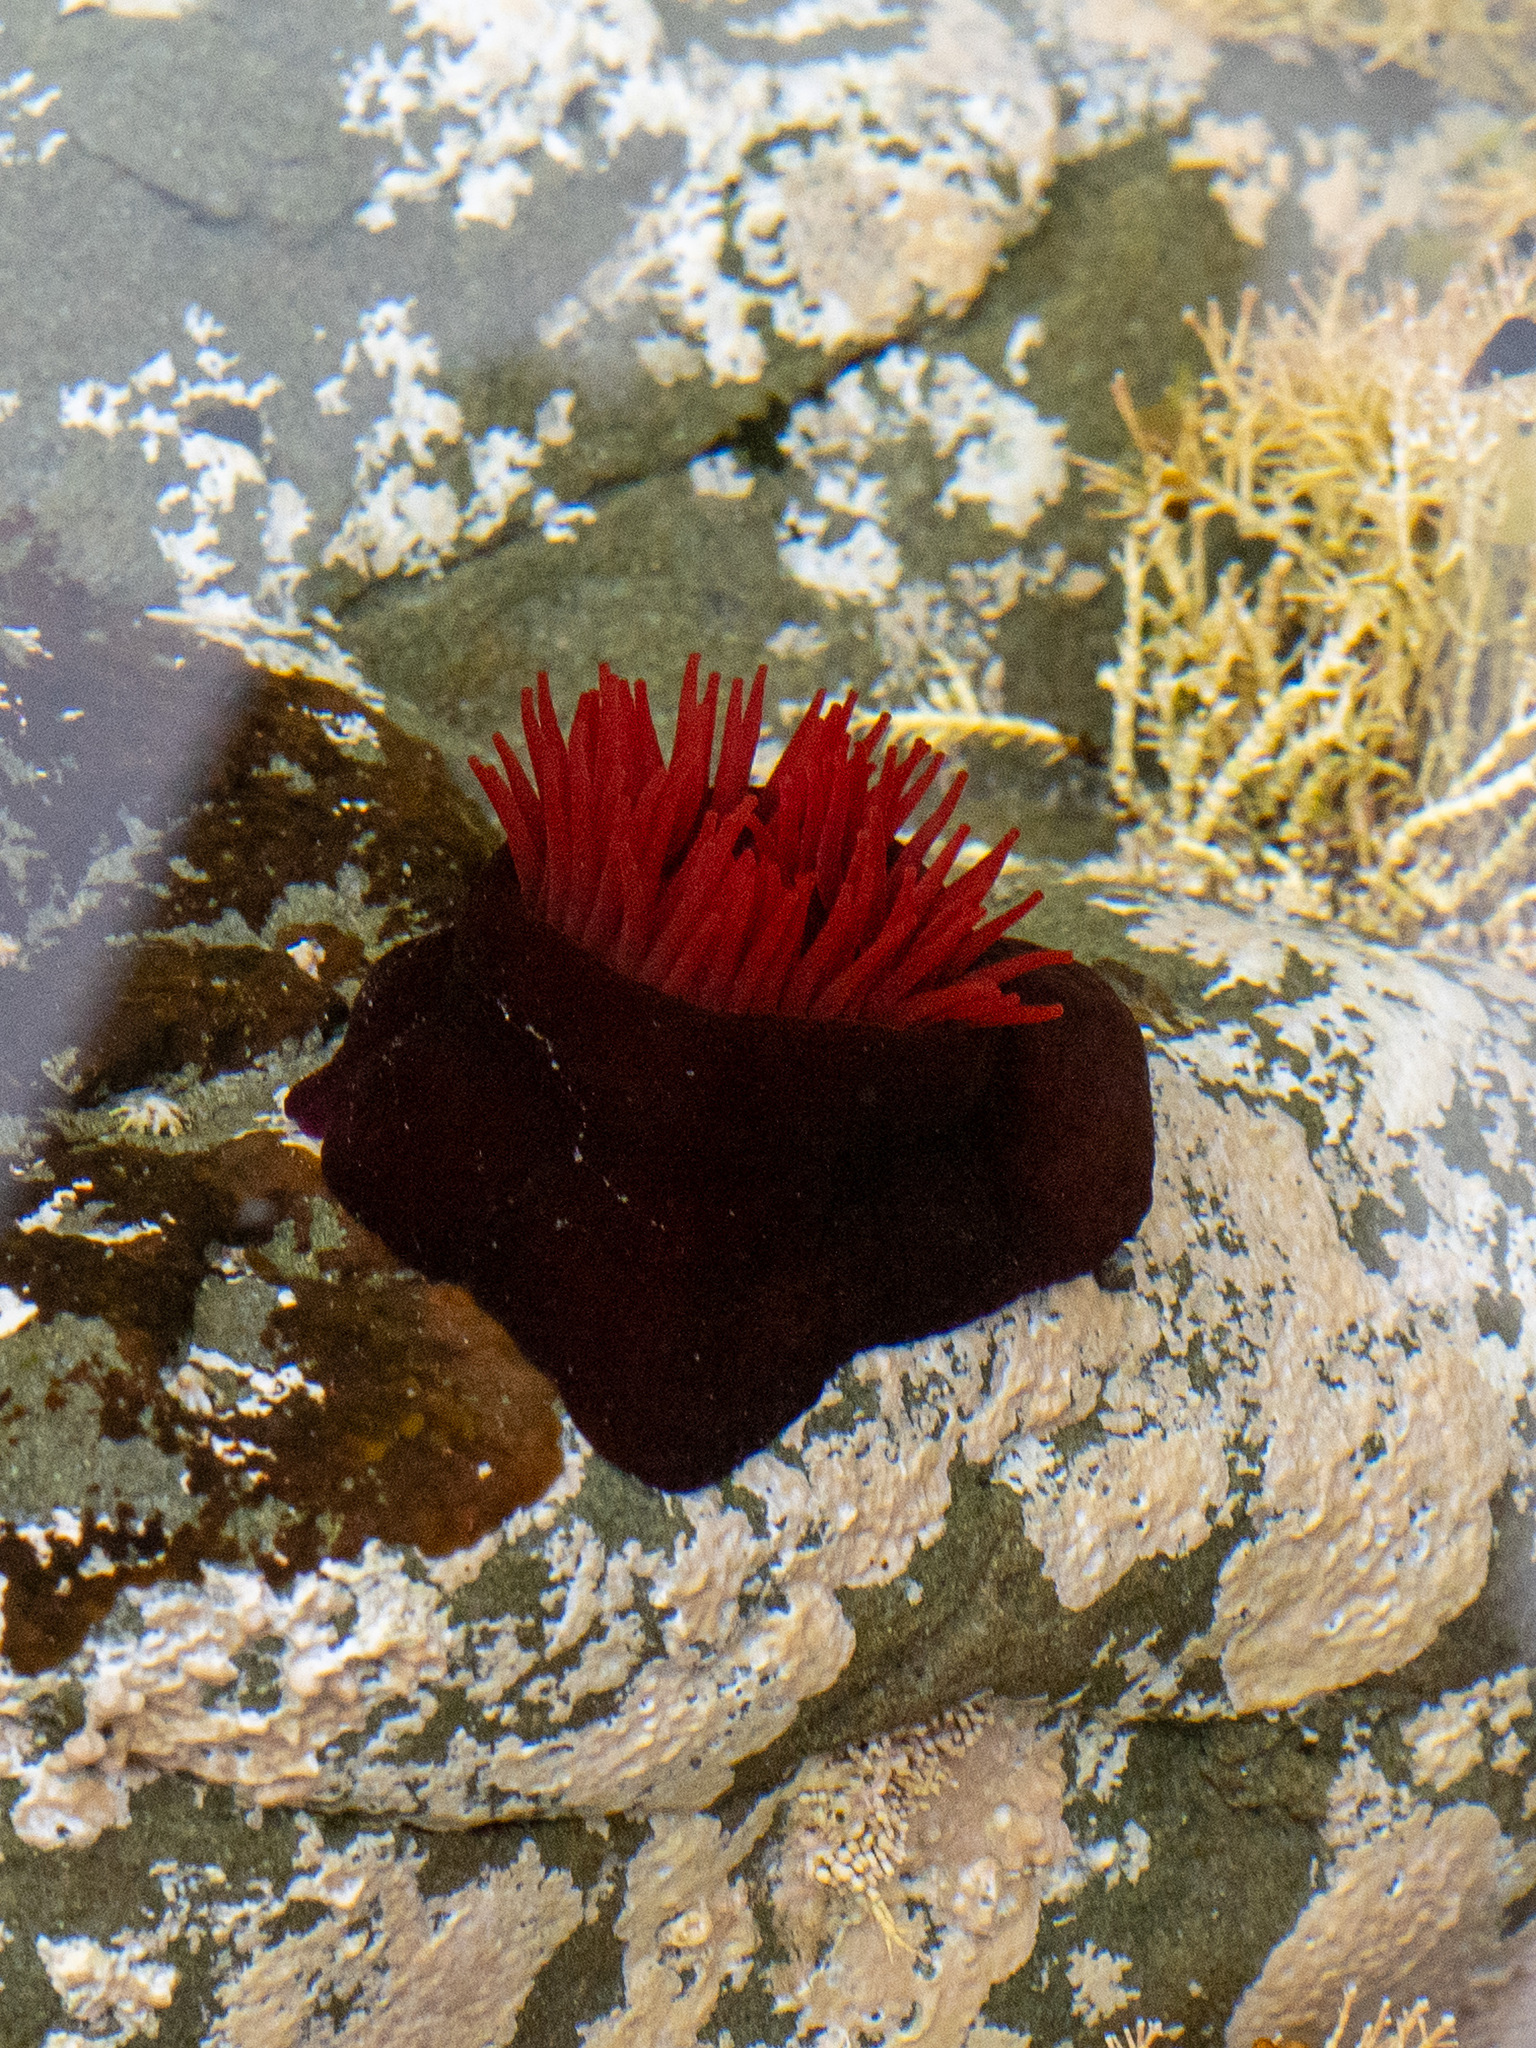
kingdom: Animalia
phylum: Cnidaria
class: Anthozoa
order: Actiniaria
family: Actiniidae
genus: Actinia
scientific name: Actinia tenebrosa
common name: Waratah anemone
